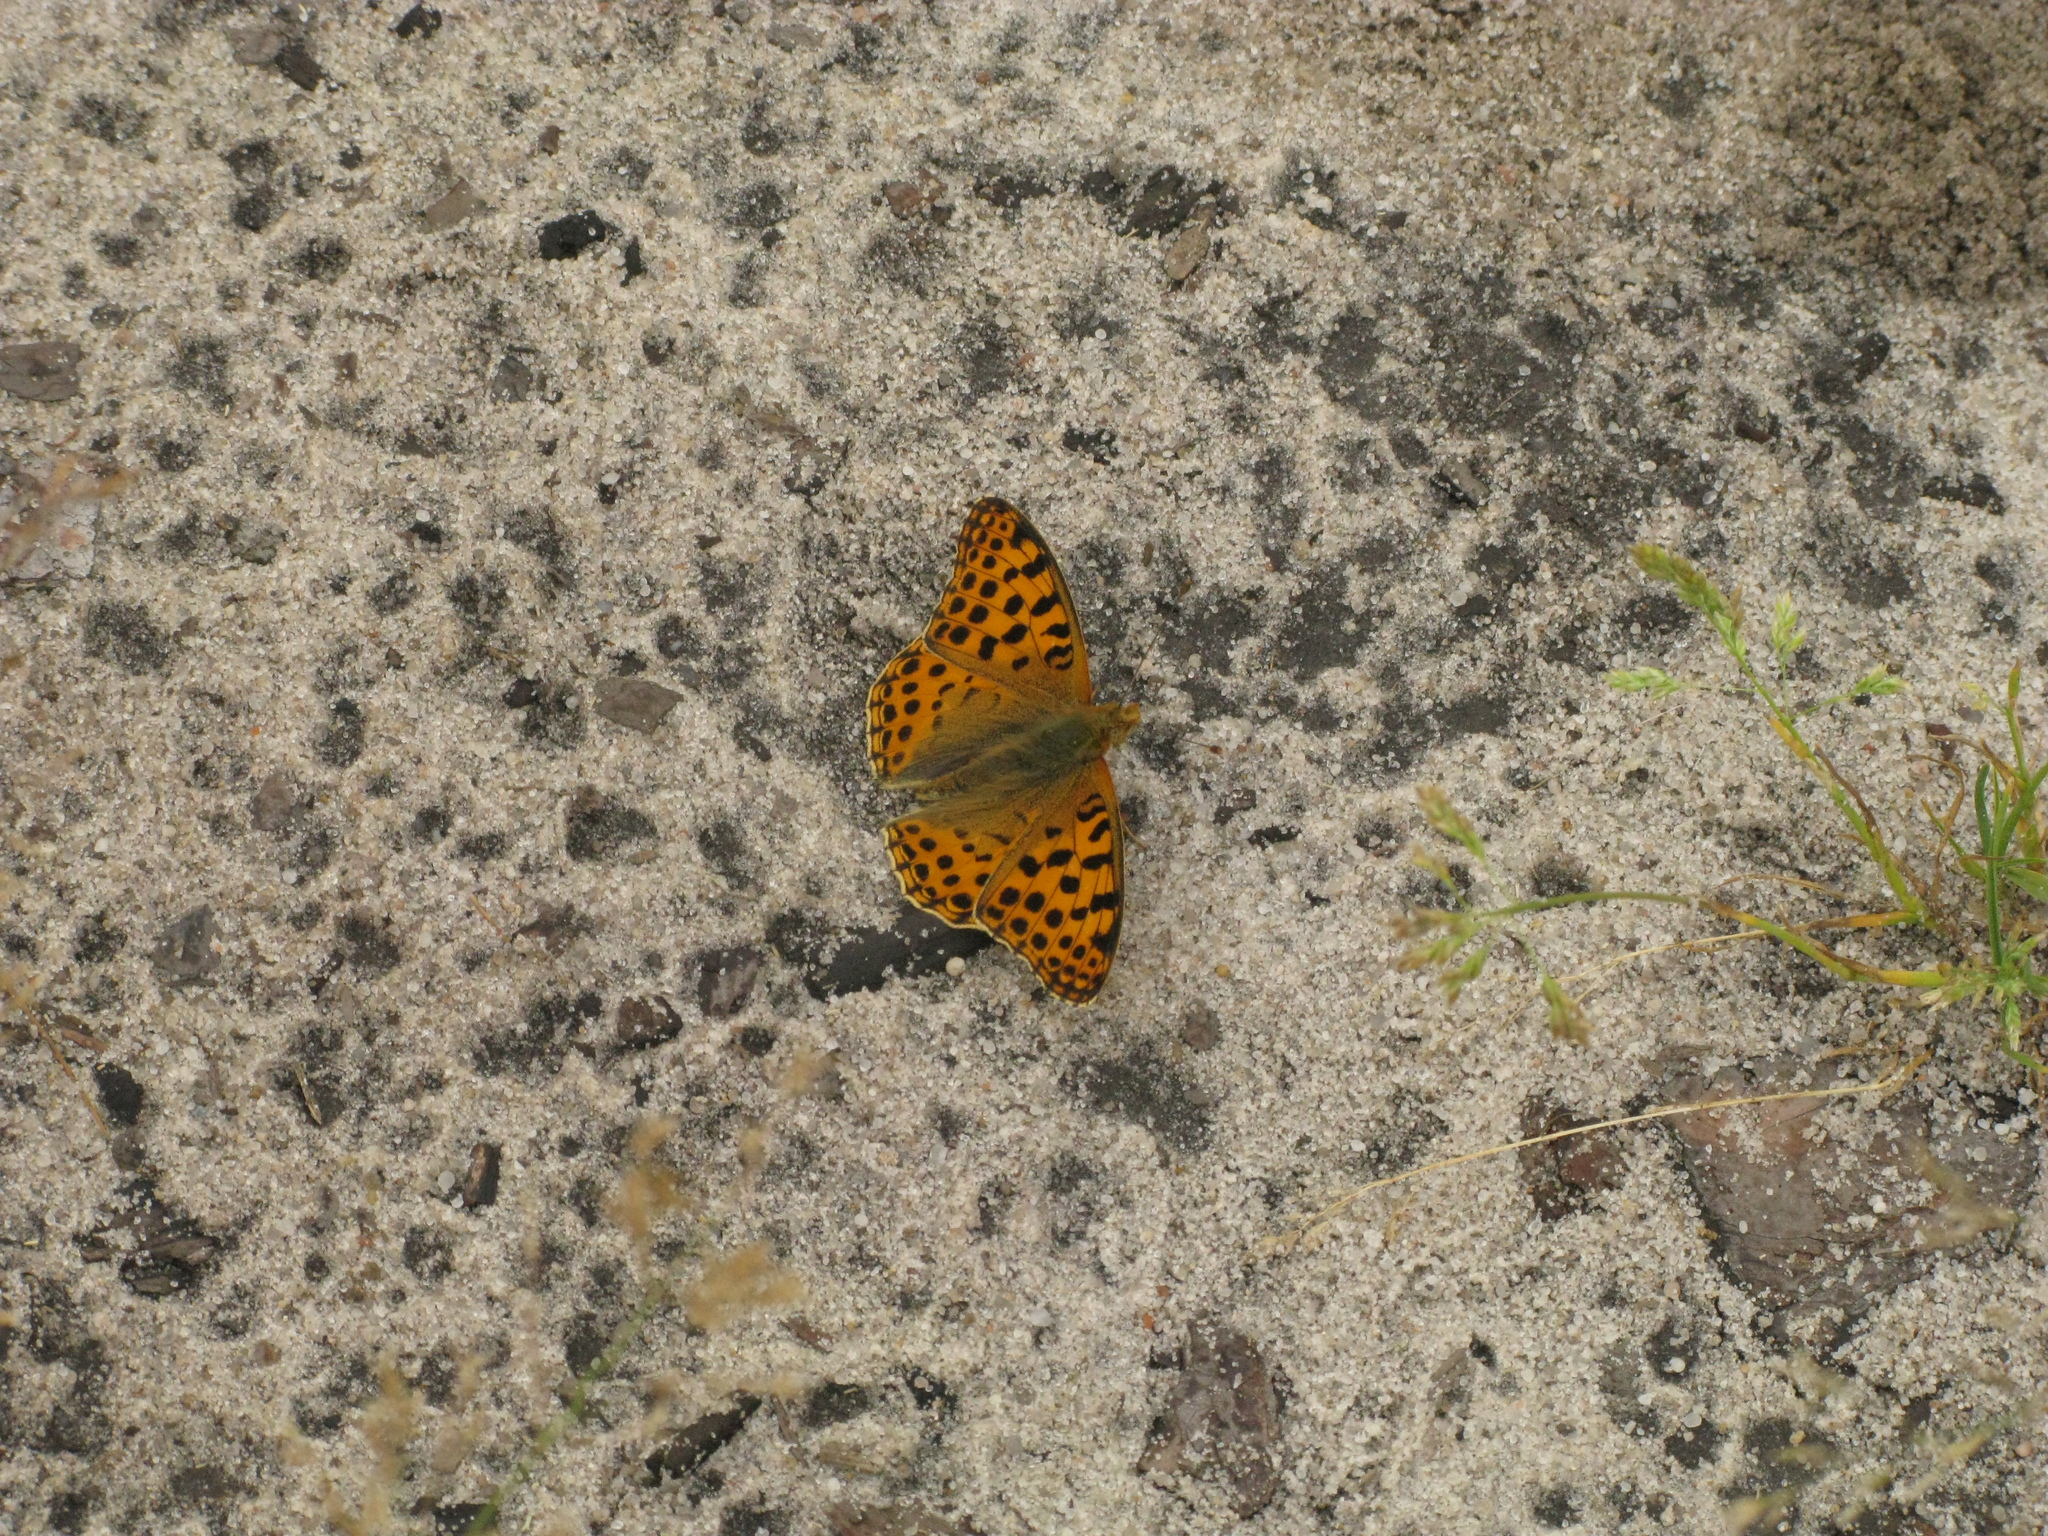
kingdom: Animalia
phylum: Arthropoda
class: Insecta
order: Lepidoptera
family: Nymphalidae
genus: Issoria
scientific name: Issoria lathonia
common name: Queen of spain fritillary
